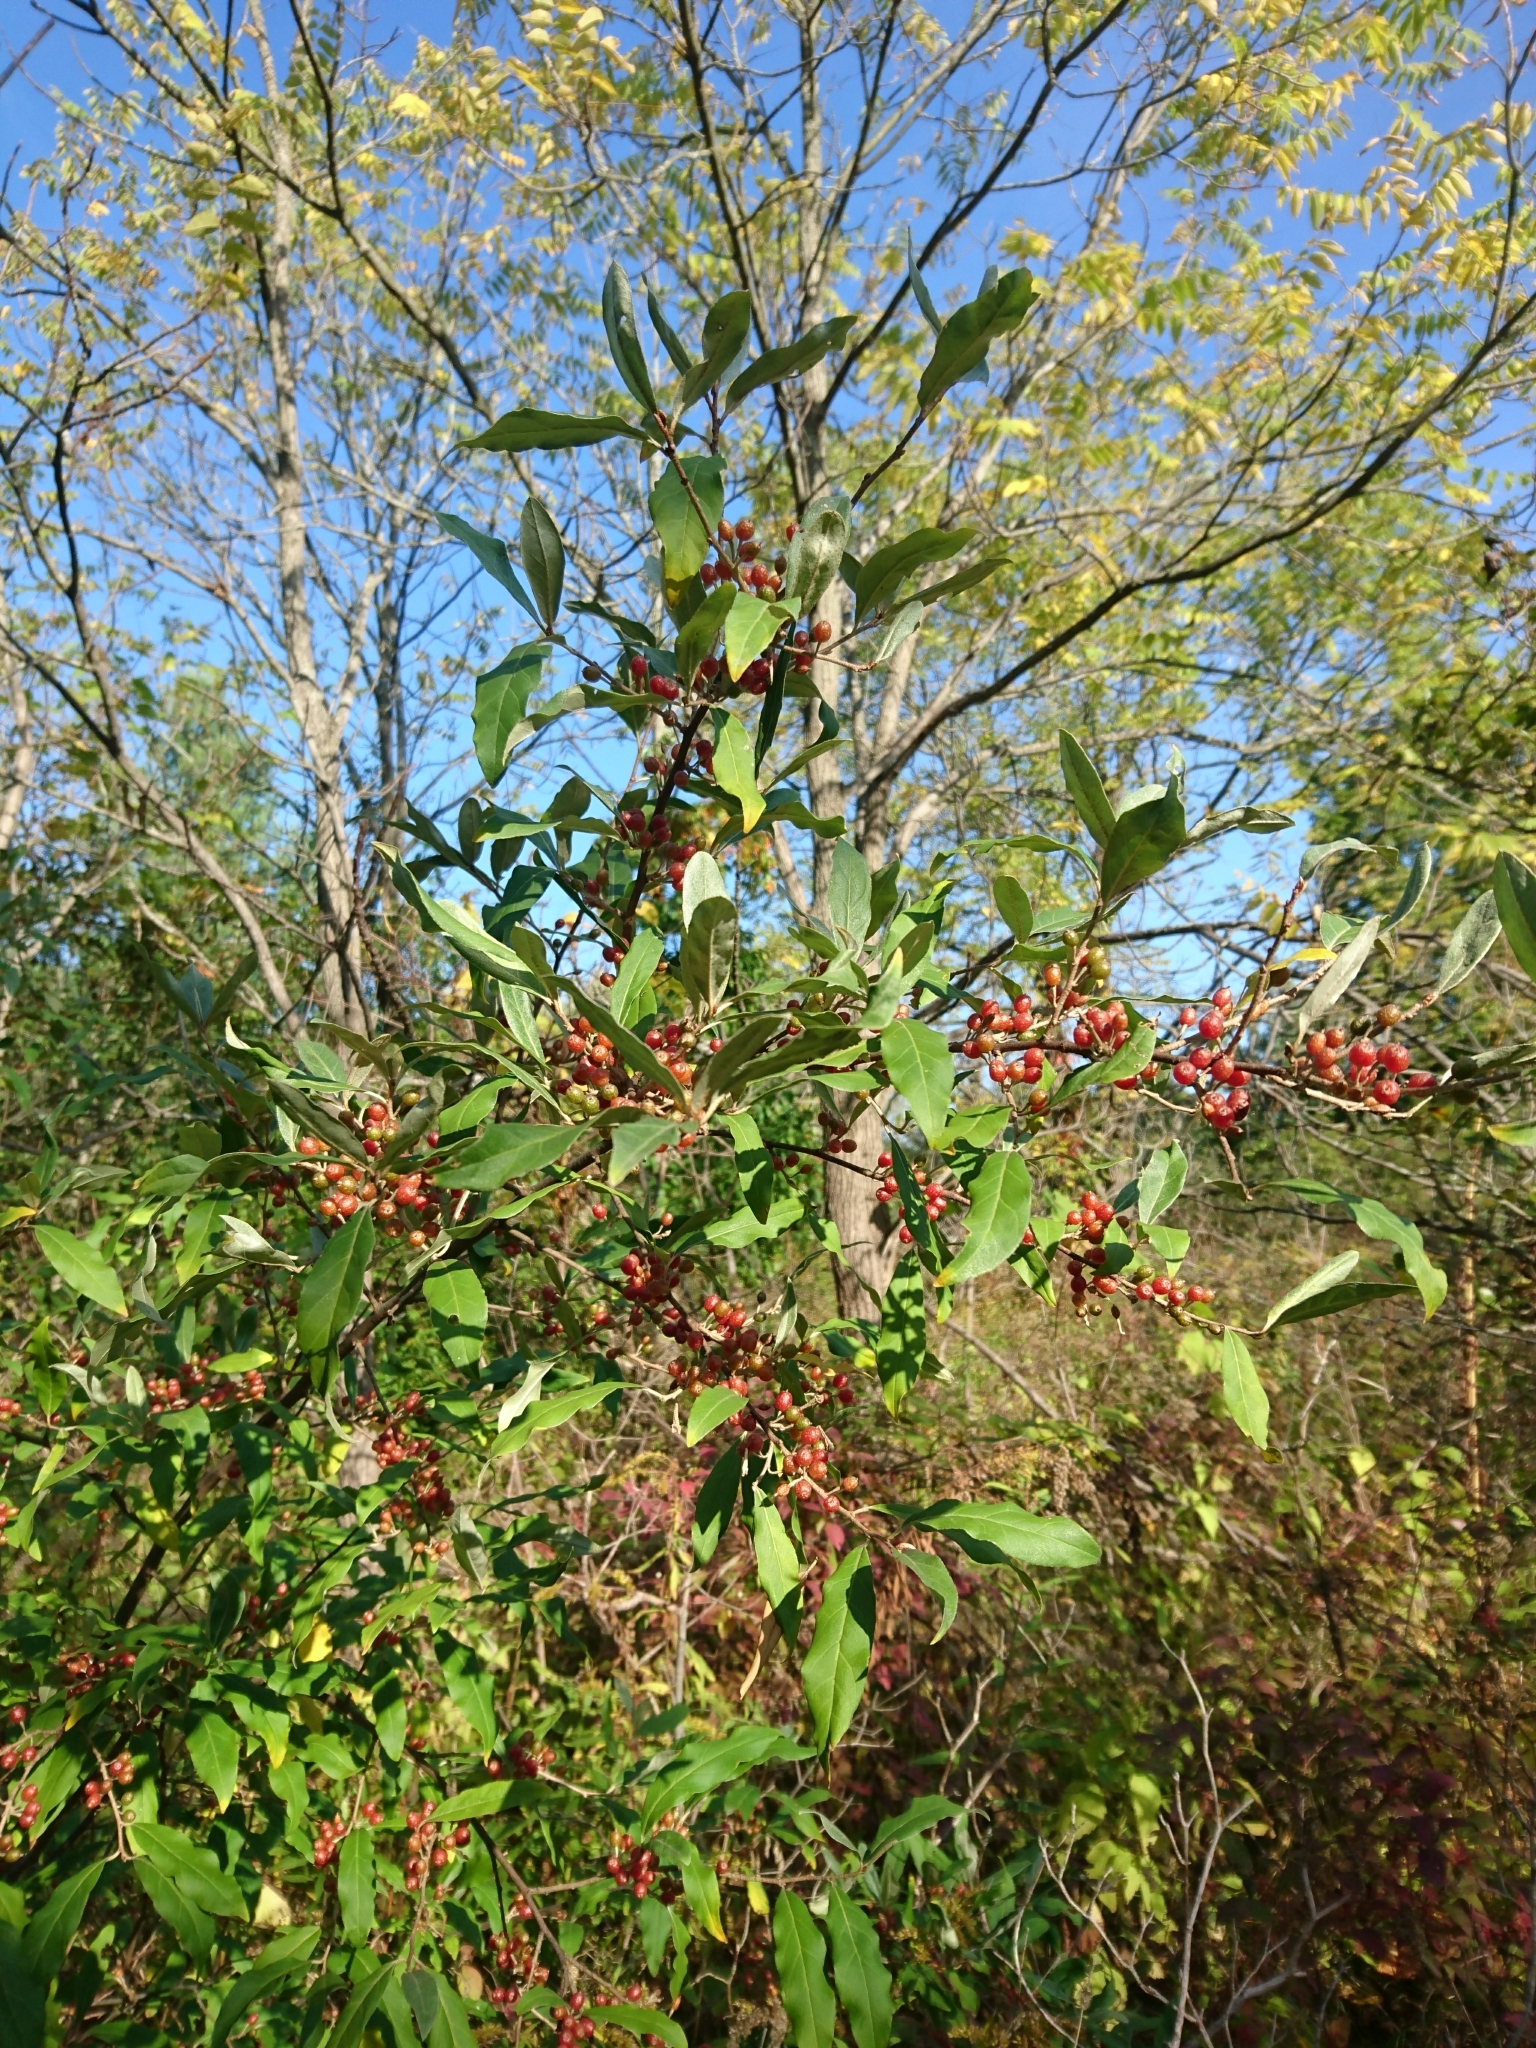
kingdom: Plantae
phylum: Tracheophyta
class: Magnoliopsida
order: Rosales
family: Elaeagnaceae
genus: Elaeagnus
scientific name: Elaeagnus umbellata
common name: Autumn olive
